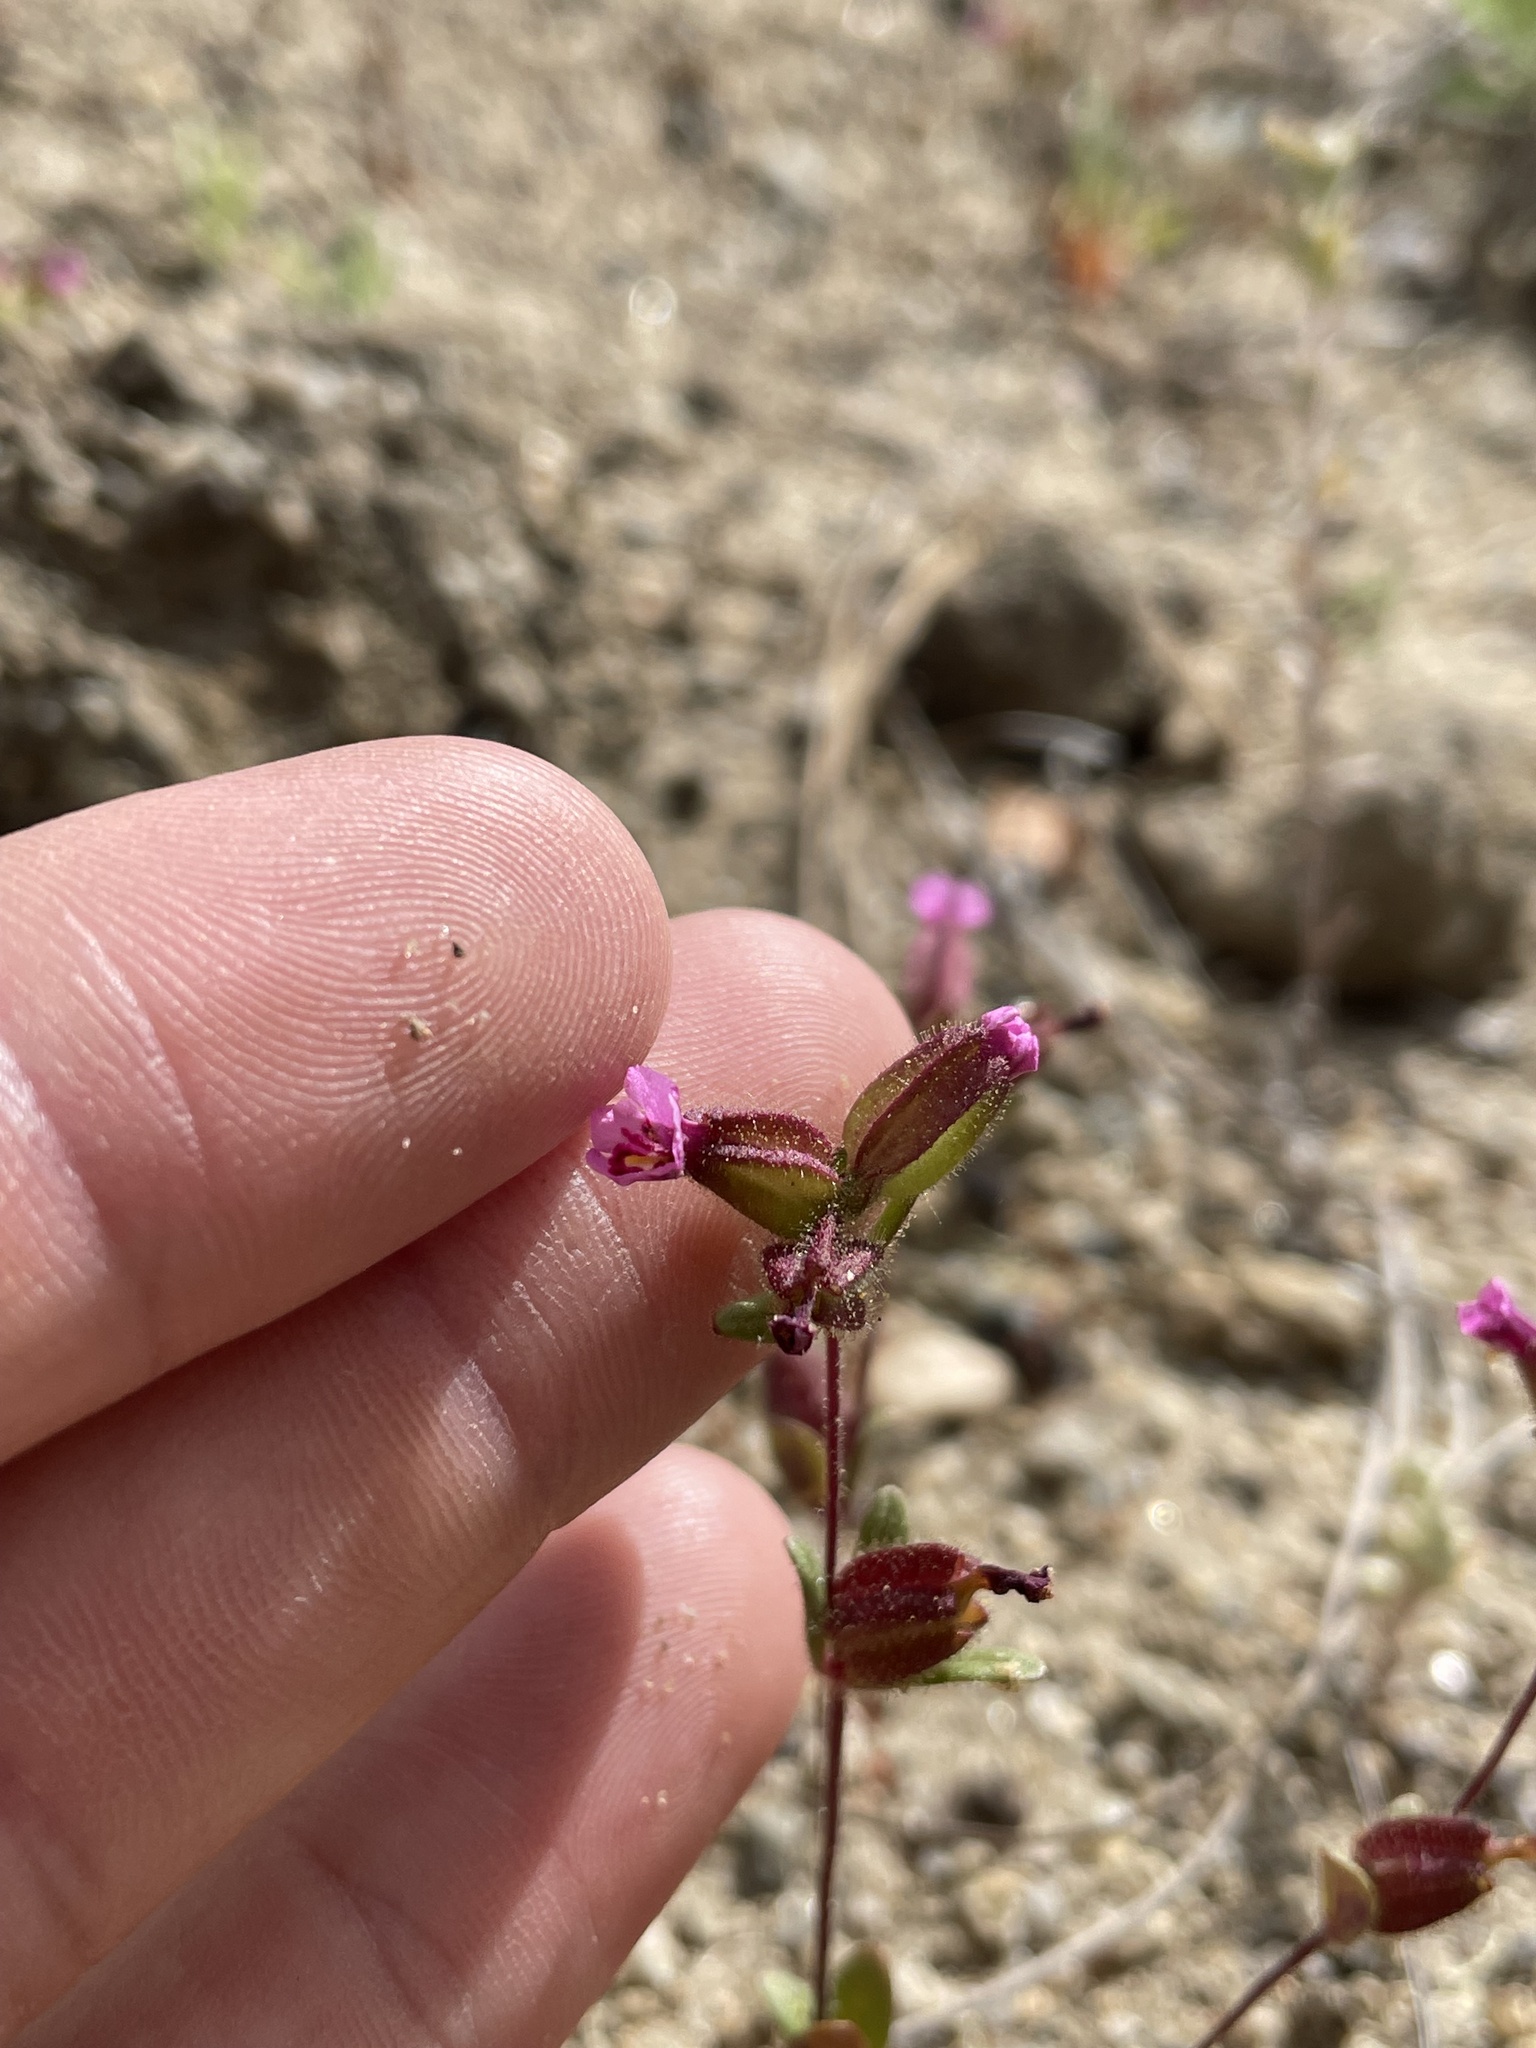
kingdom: Plantae
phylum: Tracheophyta
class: Magnoliopsida
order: Lamiales
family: Phrymaceae
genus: Diplacus
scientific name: Diplacus rattanii
